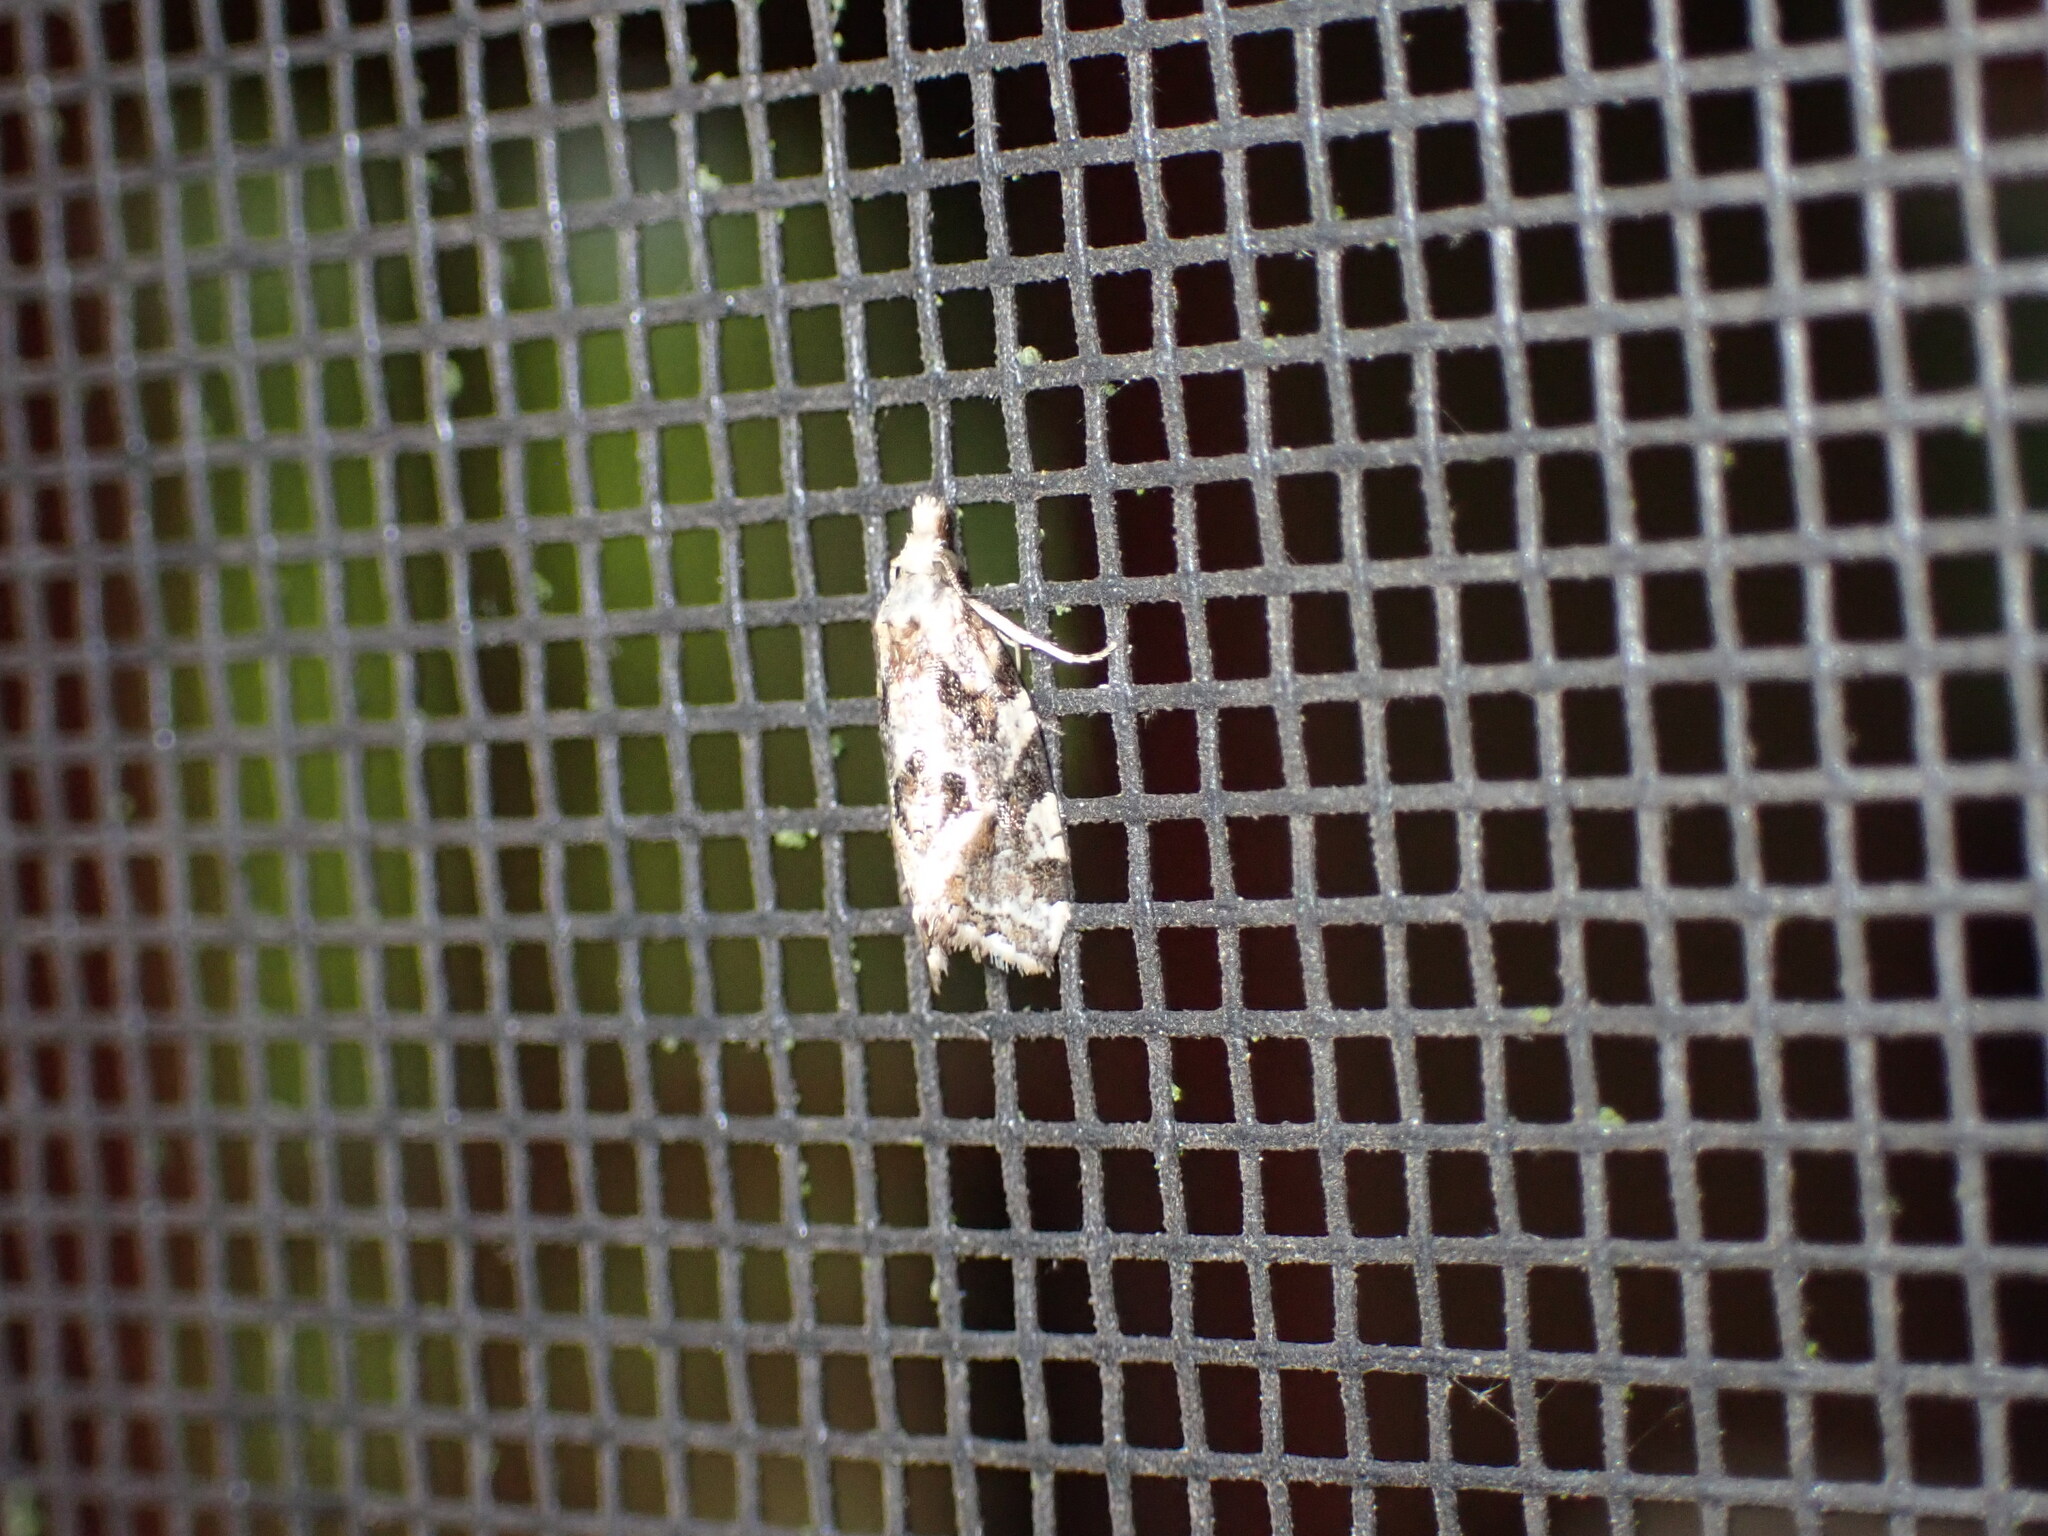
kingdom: Animalia
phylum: Arthropoda
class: Insecta
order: Lepidoptera
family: Tortricidae
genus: Aethes
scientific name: Aethes sexdentata
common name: Six-toothed aethes
